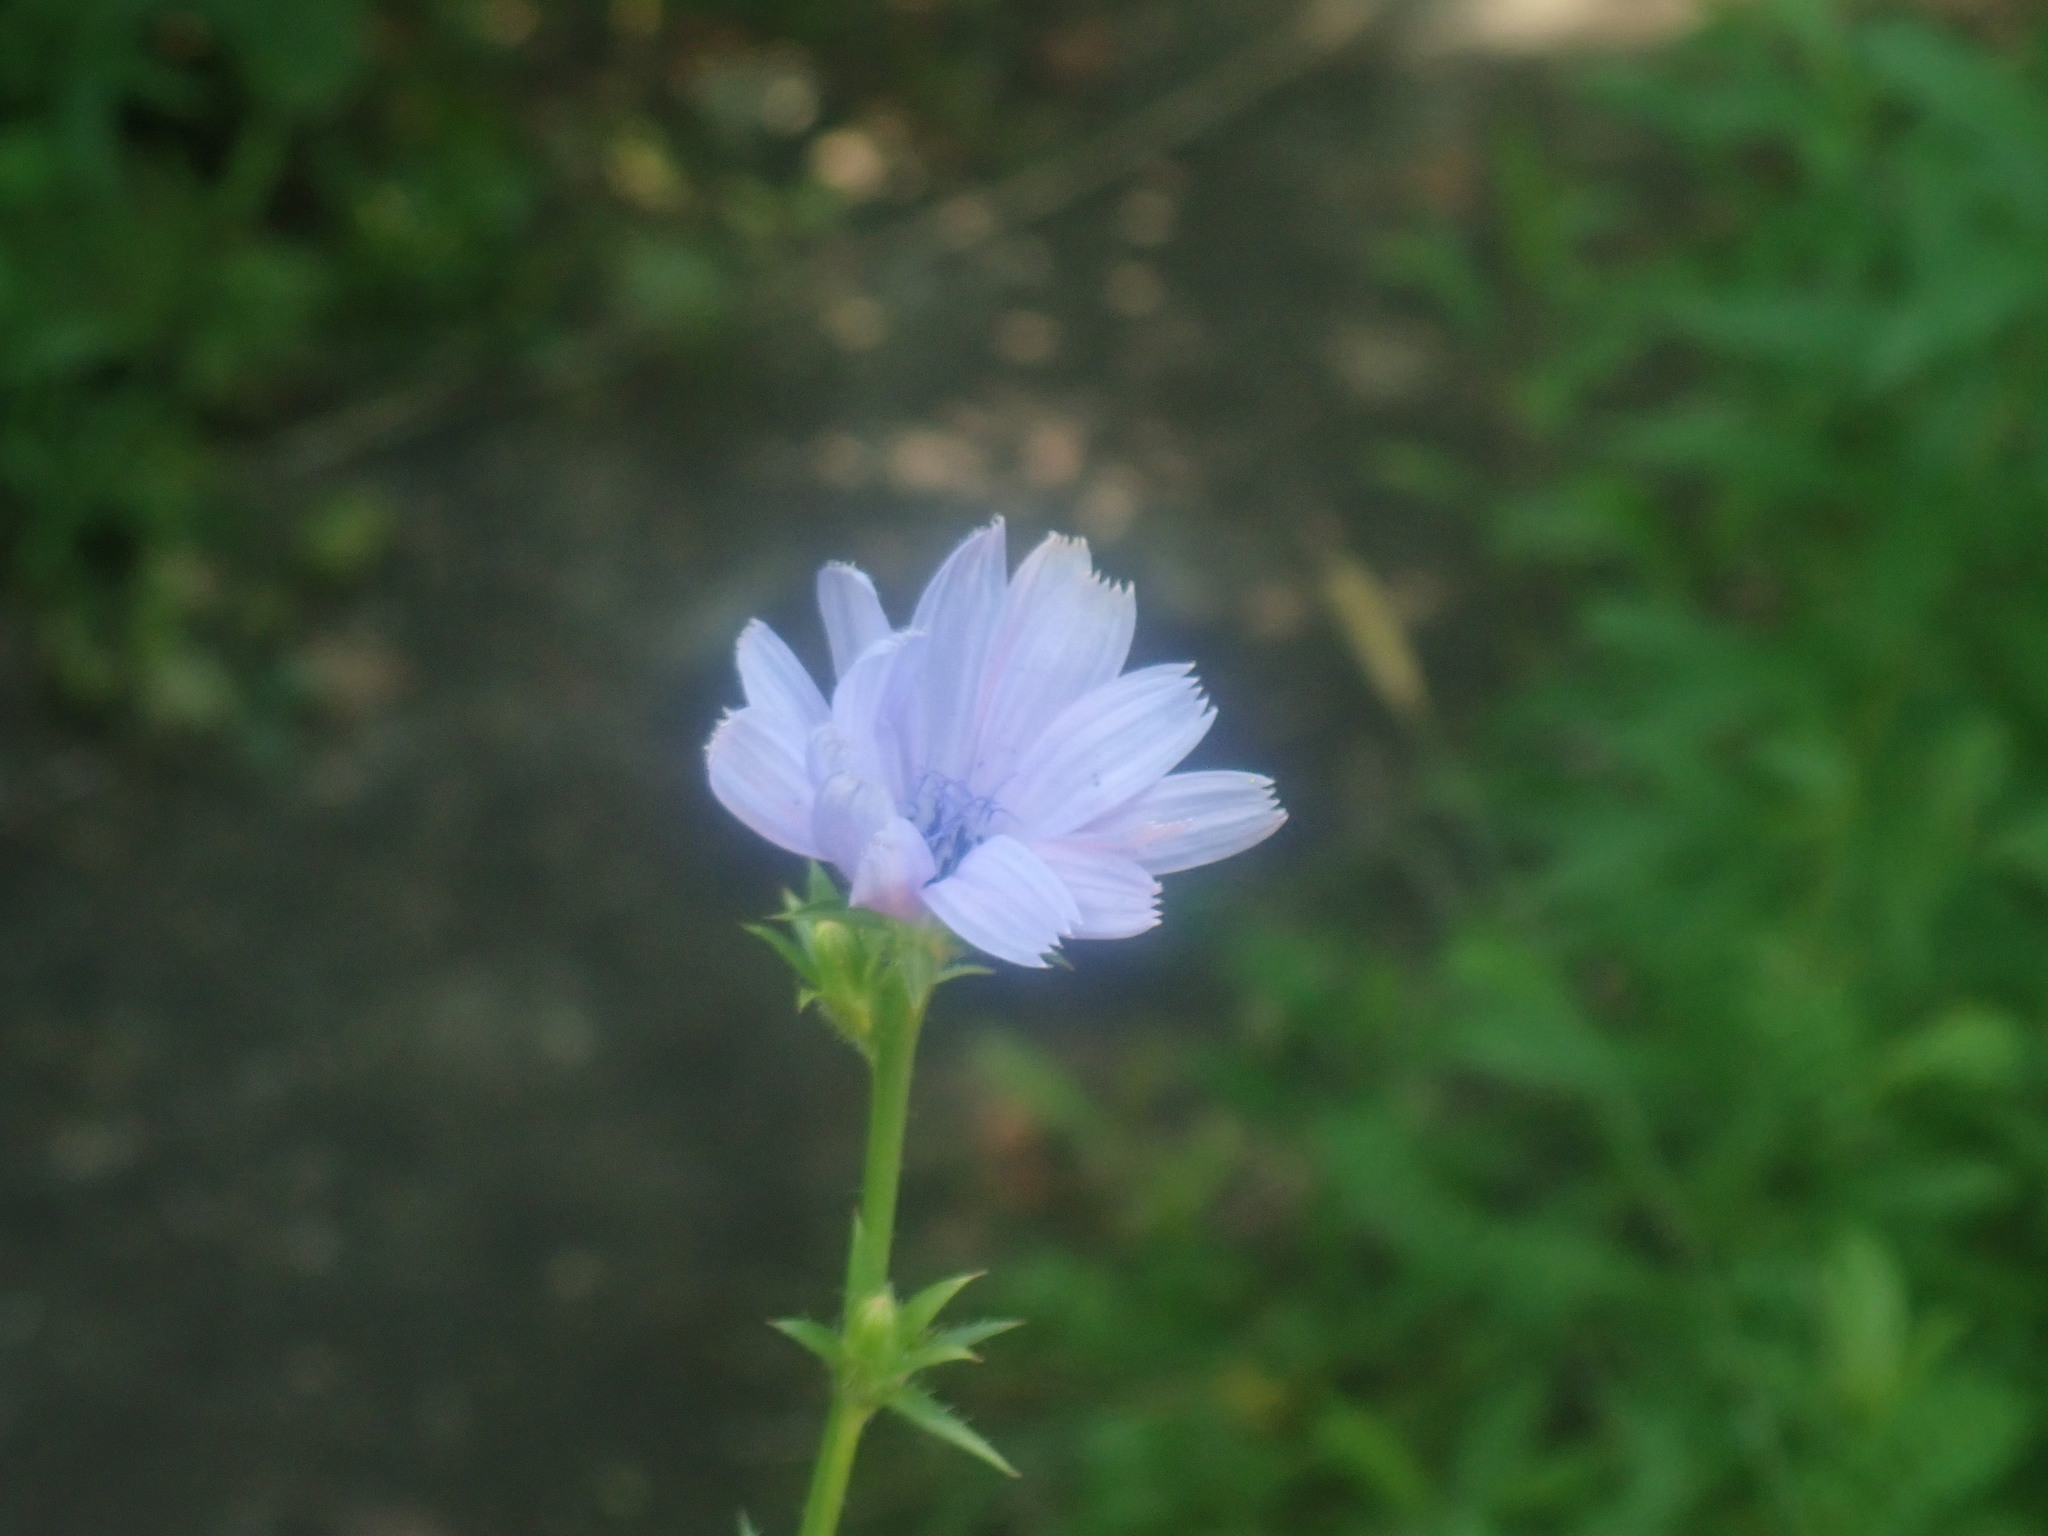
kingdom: Plantae
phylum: Tracheophyta
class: Magnoliopsida
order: Asterales
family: Asteraceae
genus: Cichorium
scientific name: Cichorium intybus
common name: Chicory
